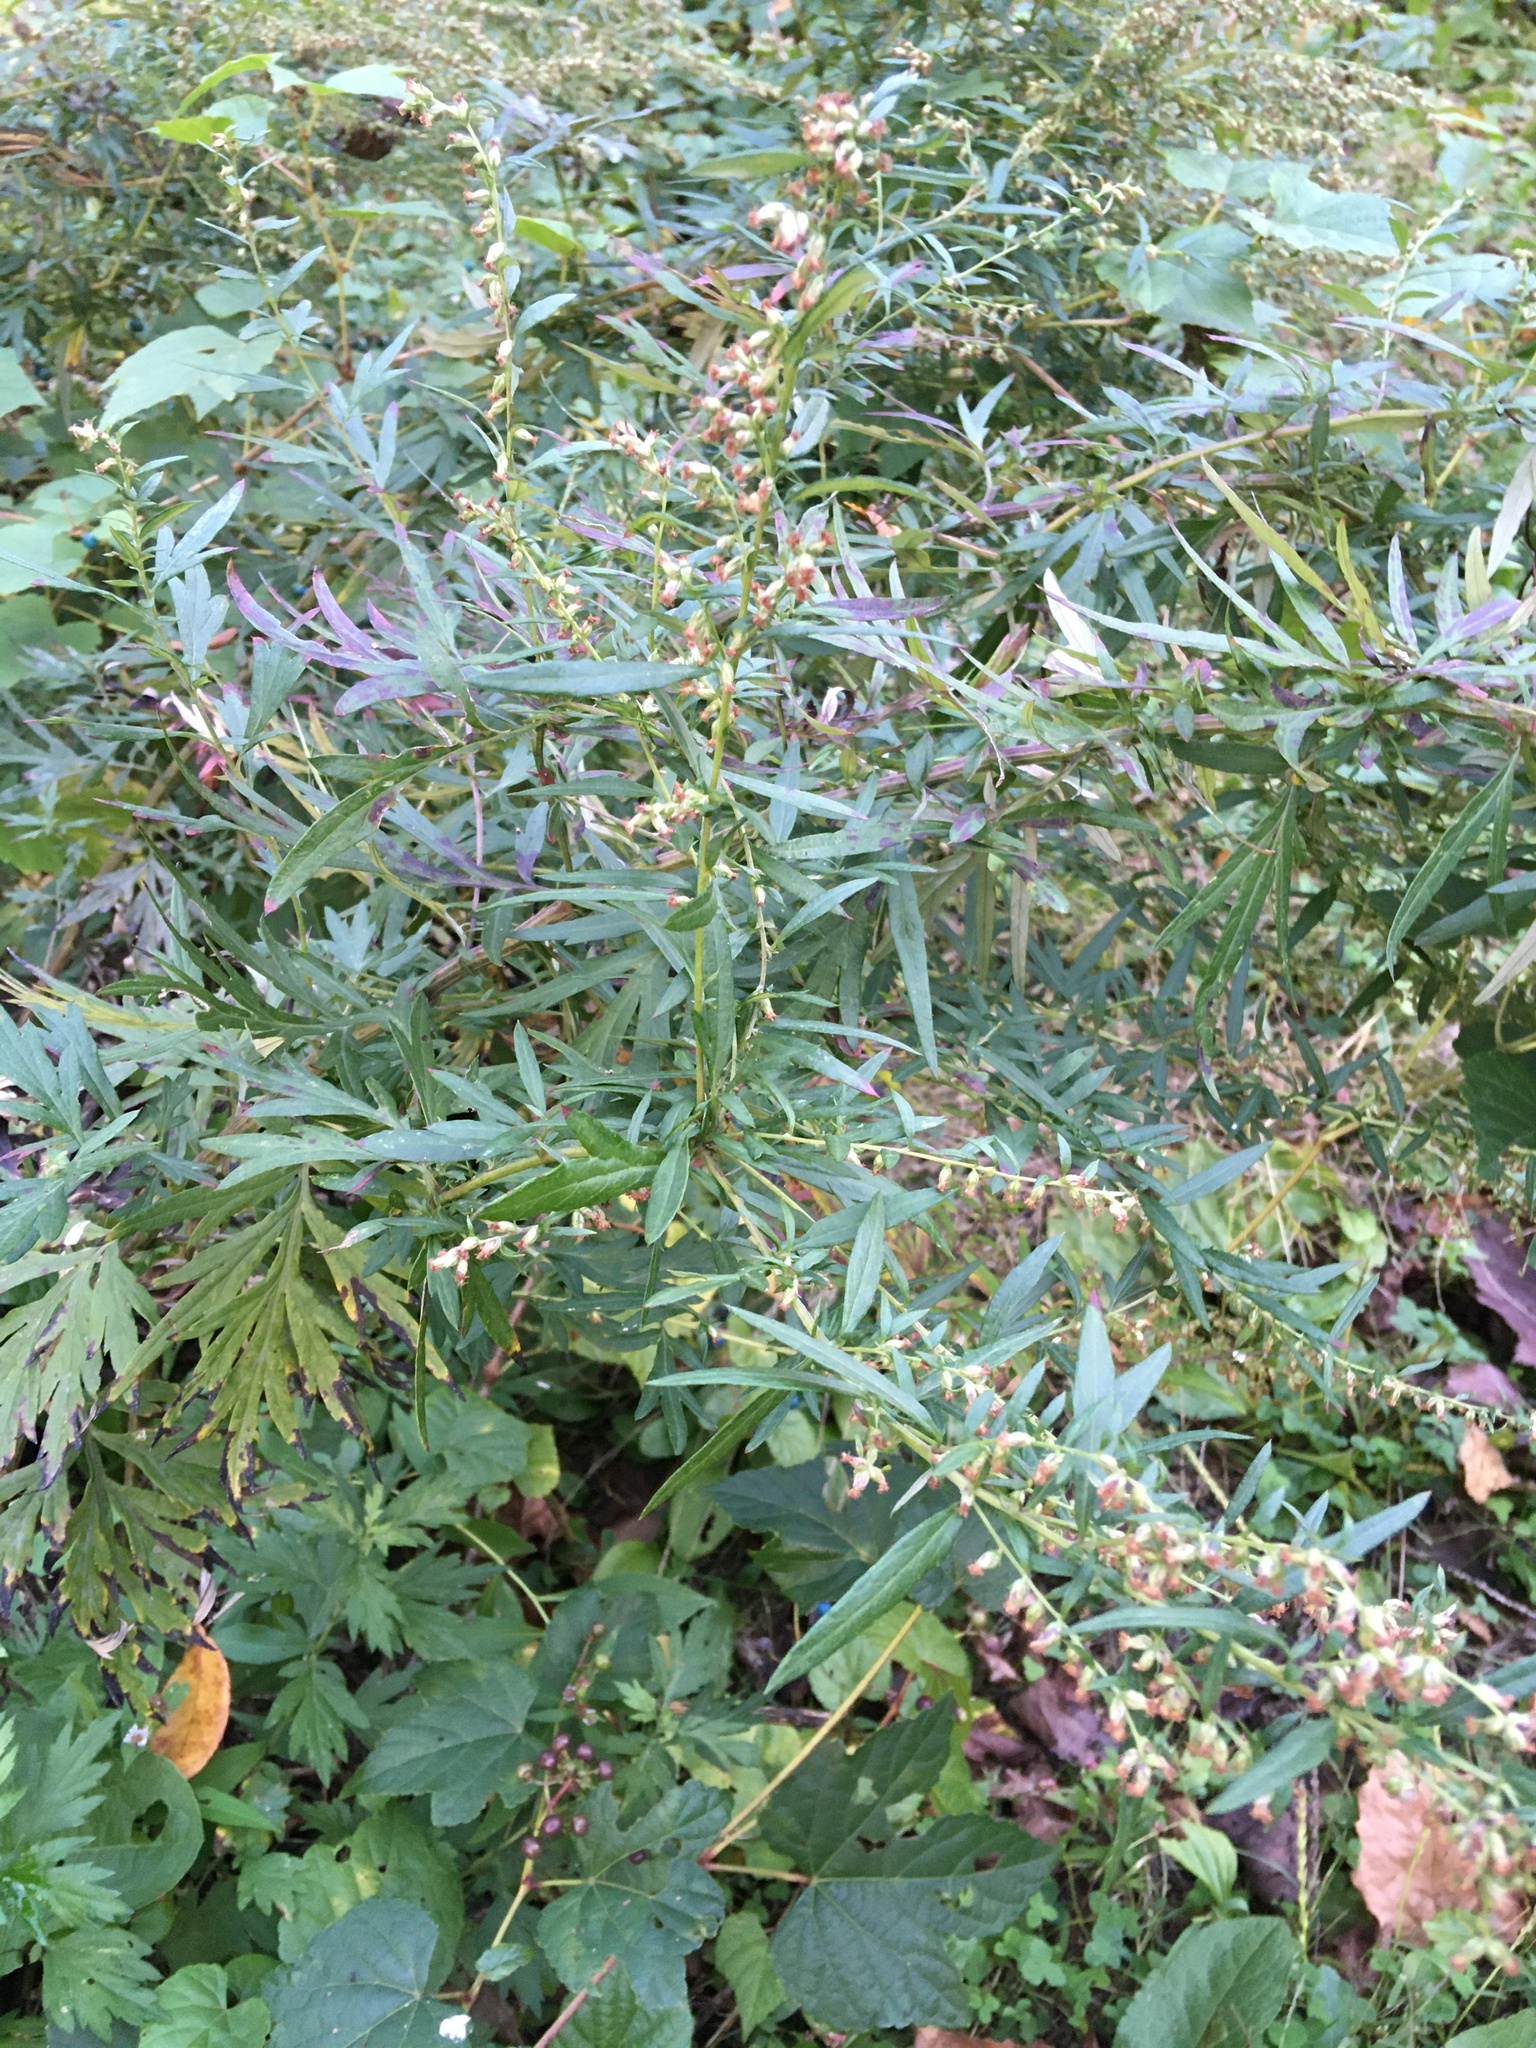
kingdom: Plantae
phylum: Tracheophyta
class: Magnoliopsida
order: Asterales
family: Asteraceae
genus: Artemisia
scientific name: Artemisia vulgaris
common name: Mugwort
